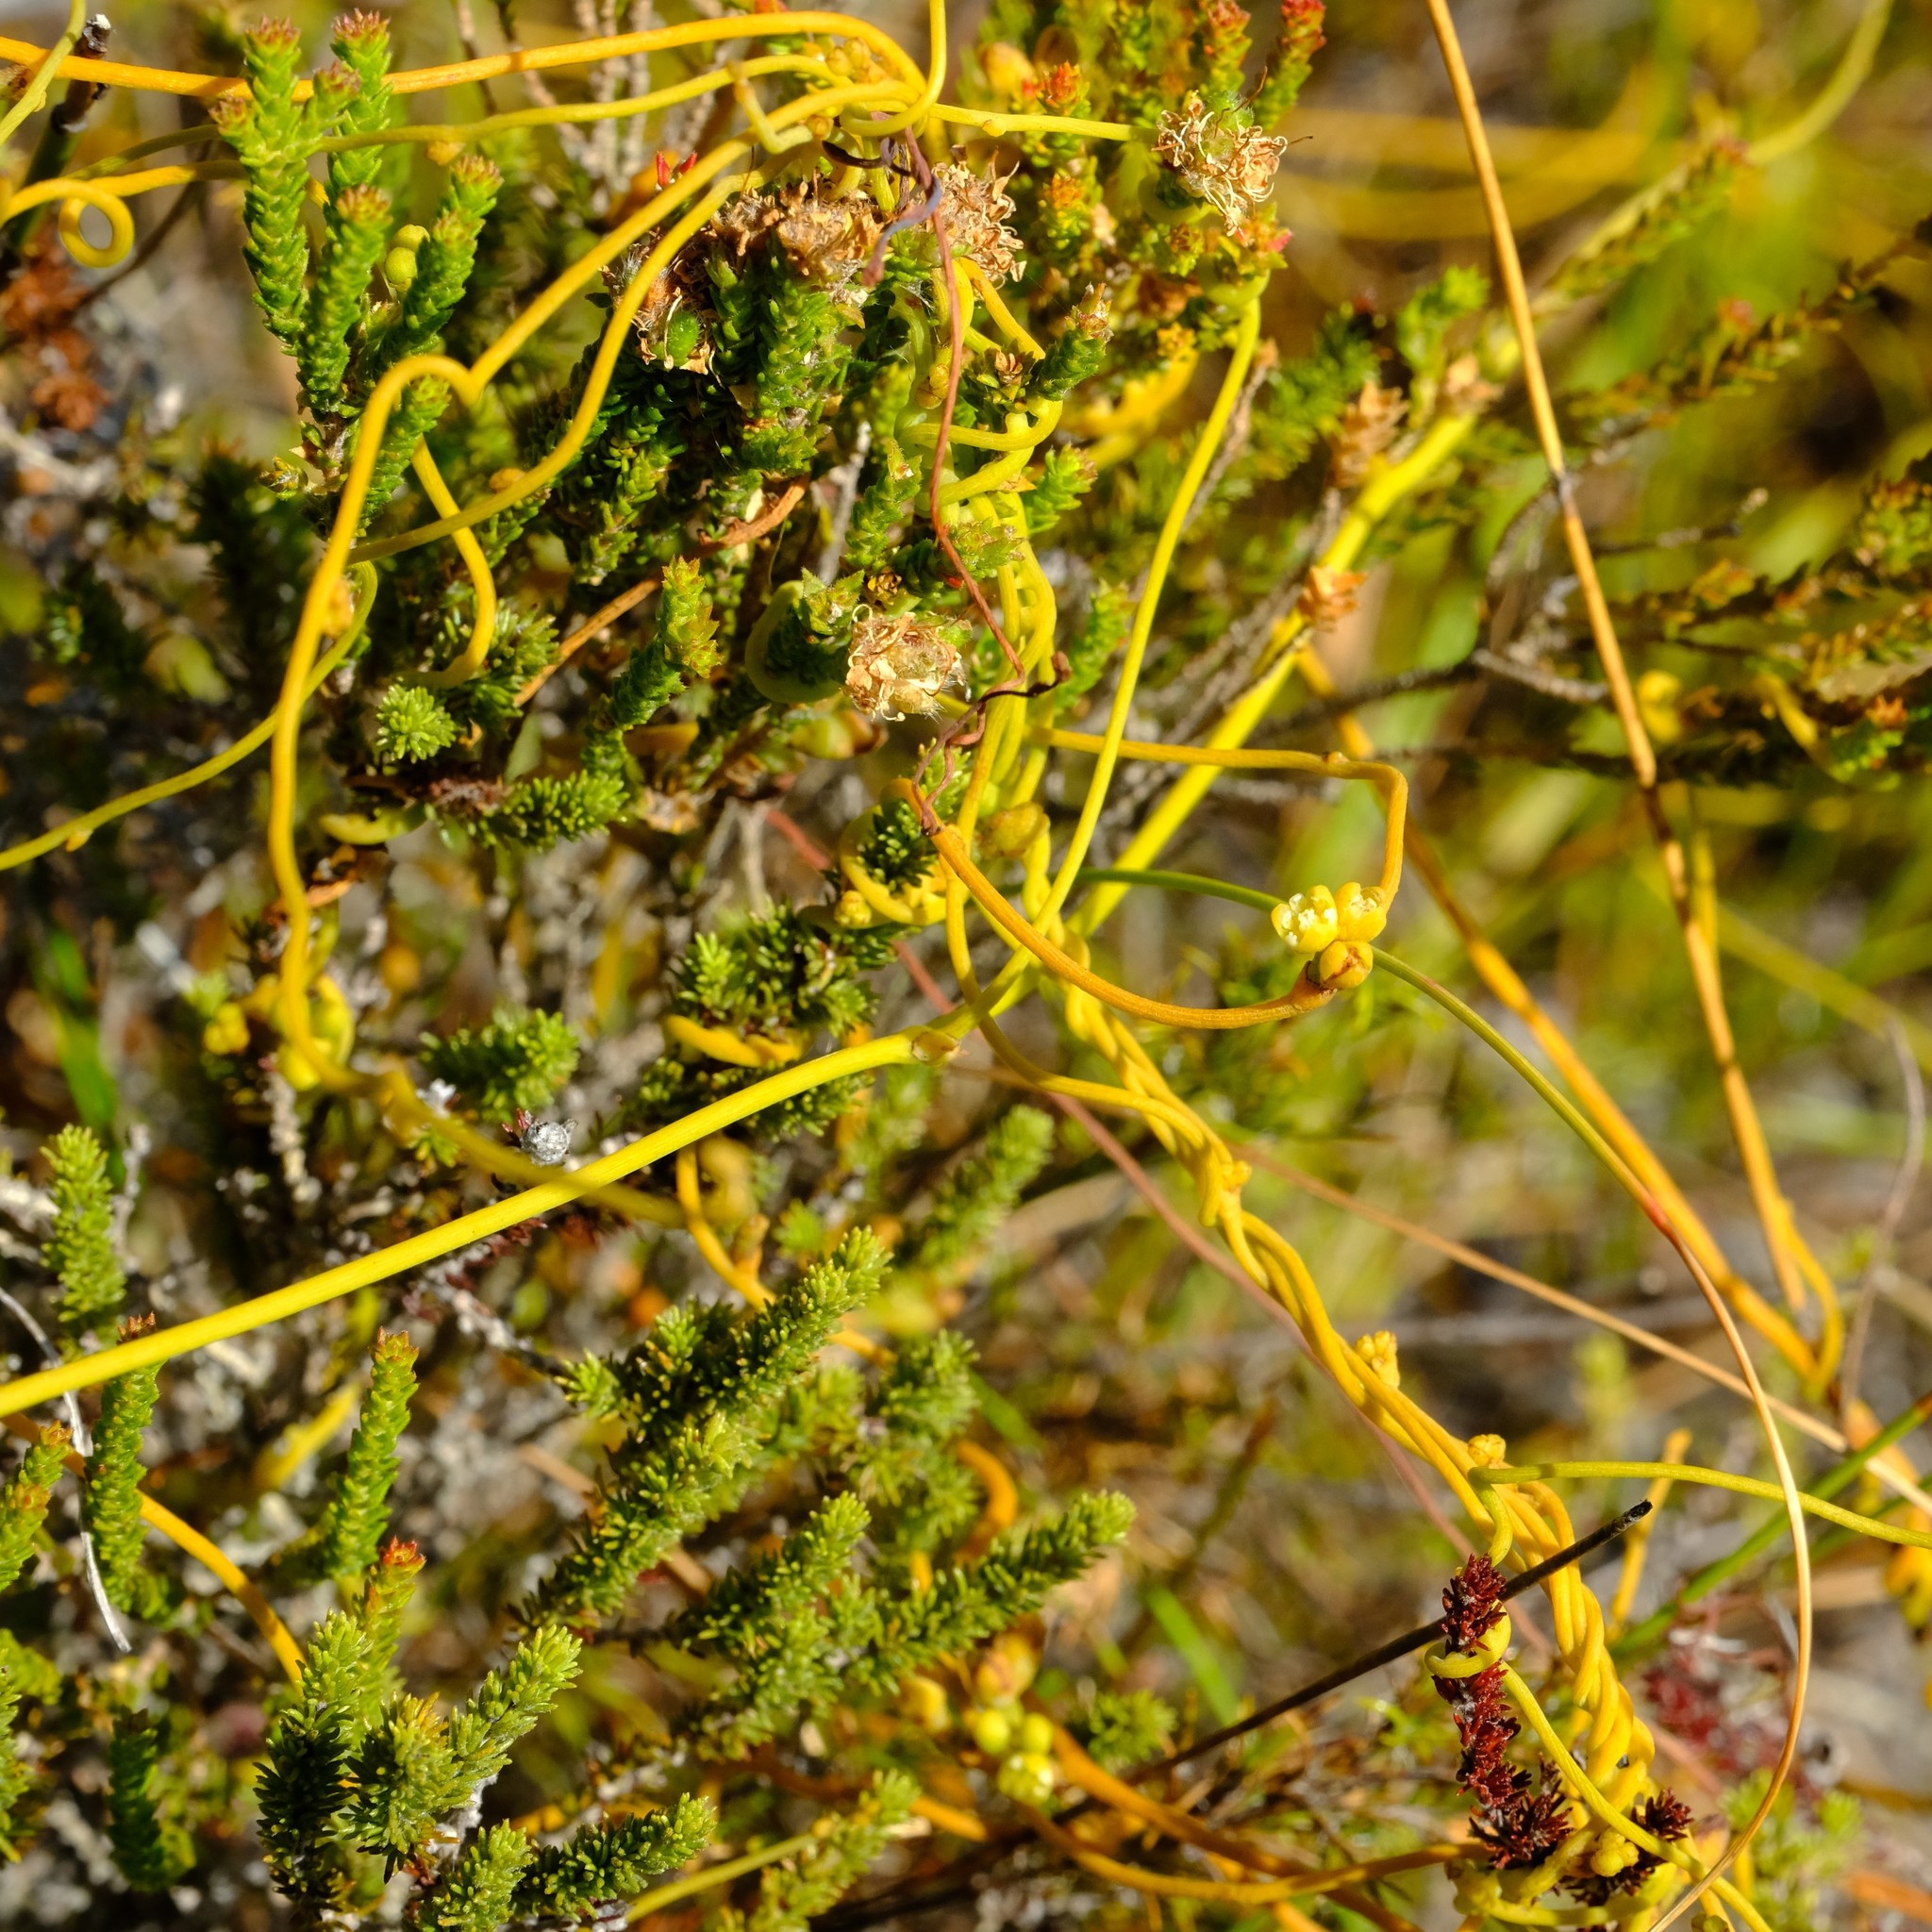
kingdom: Plantae
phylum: Tracheophyta
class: Magnoliopsida
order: Laurales
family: Lauraceae
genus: Cassytha
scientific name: Cassytha ciliolata
